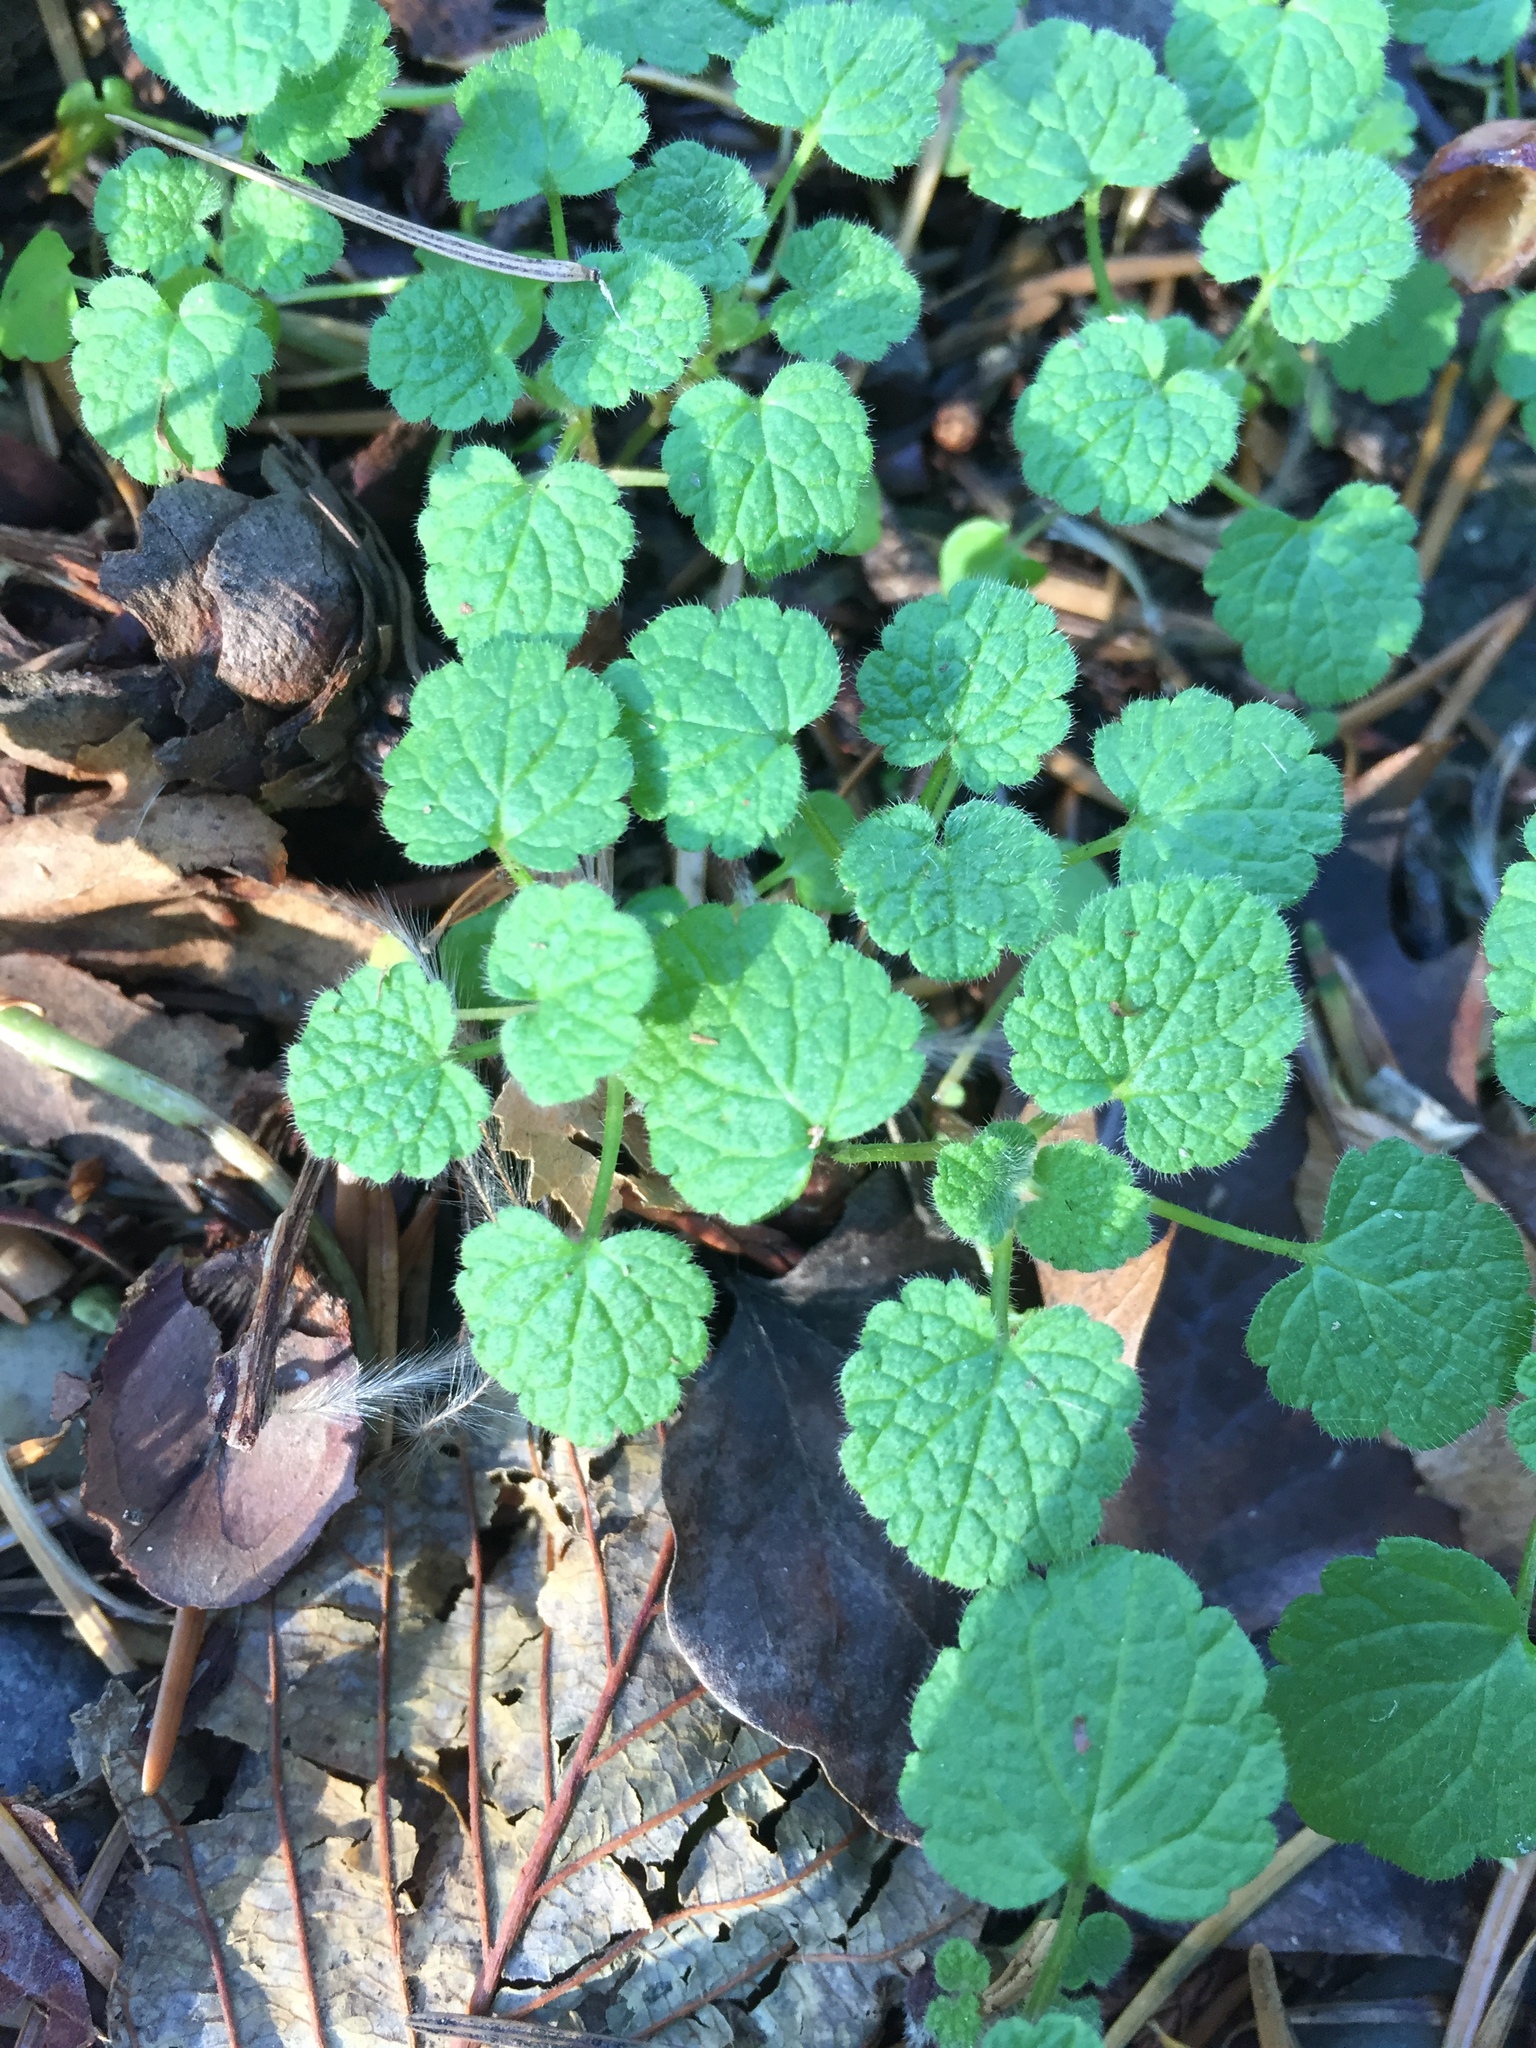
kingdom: Plantae
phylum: Tracheophyta
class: Magnoliopsida
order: Lamiales
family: Lamiaceae
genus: Lamium
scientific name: Lamium purpureum
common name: Red dead-nettle
